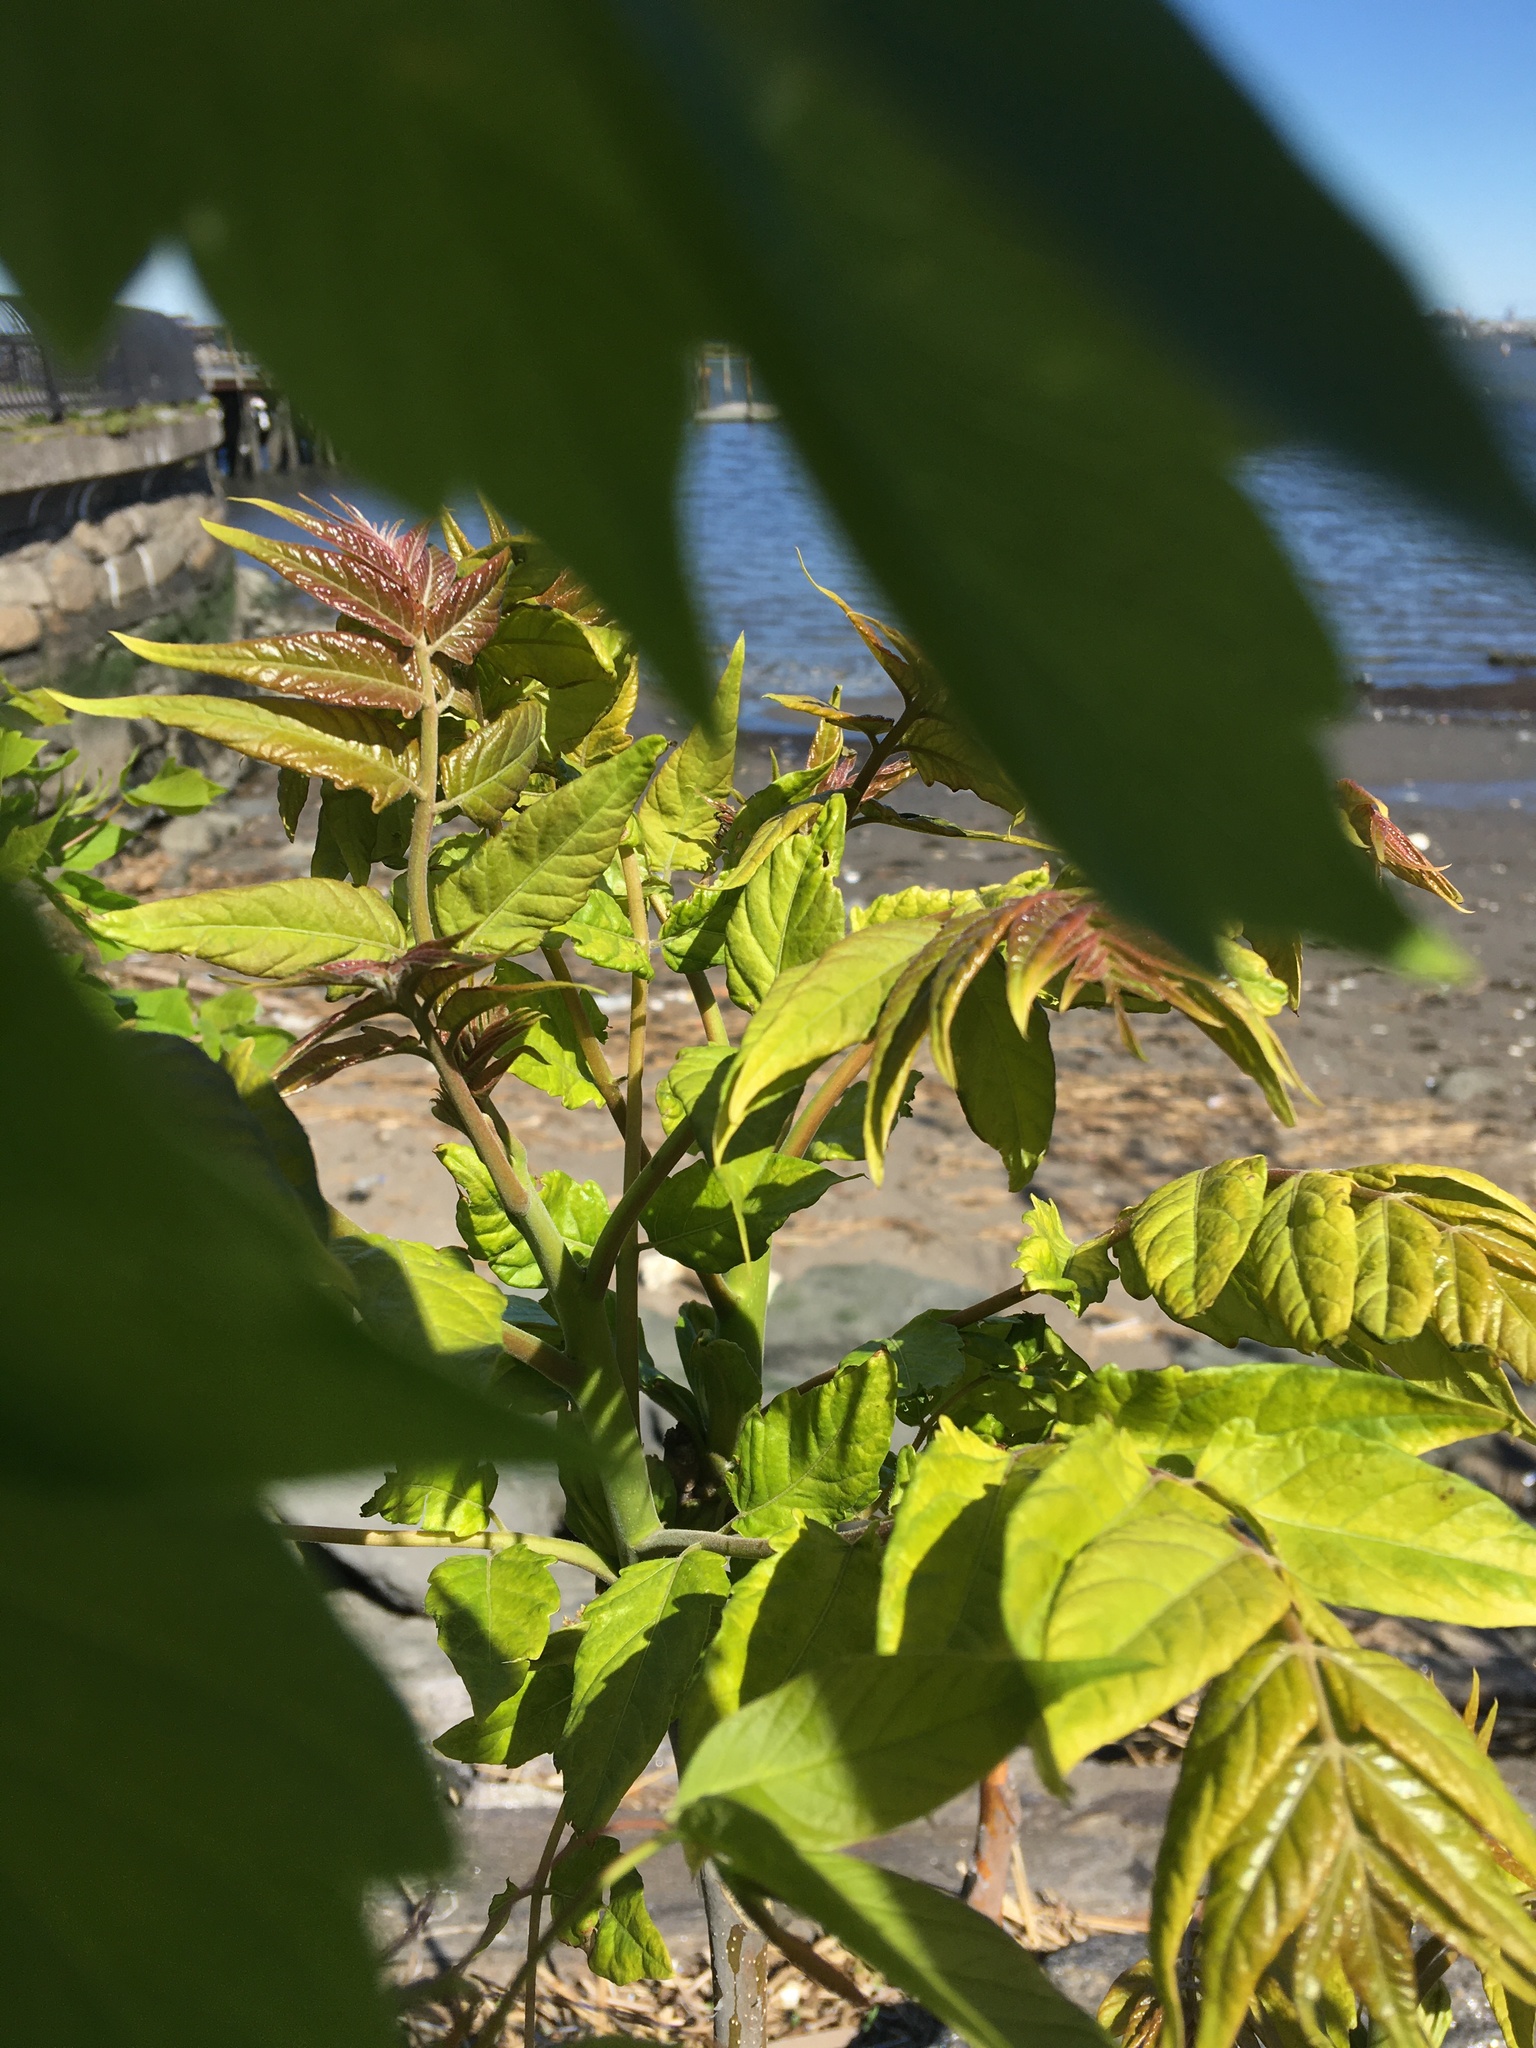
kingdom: Plantae
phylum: Tracheophyta
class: Magnoliopsida
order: Sapindales
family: Simaroubaceae
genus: Ailanthus
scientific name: Ailanthus altissima
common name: Tree-of-heaven
